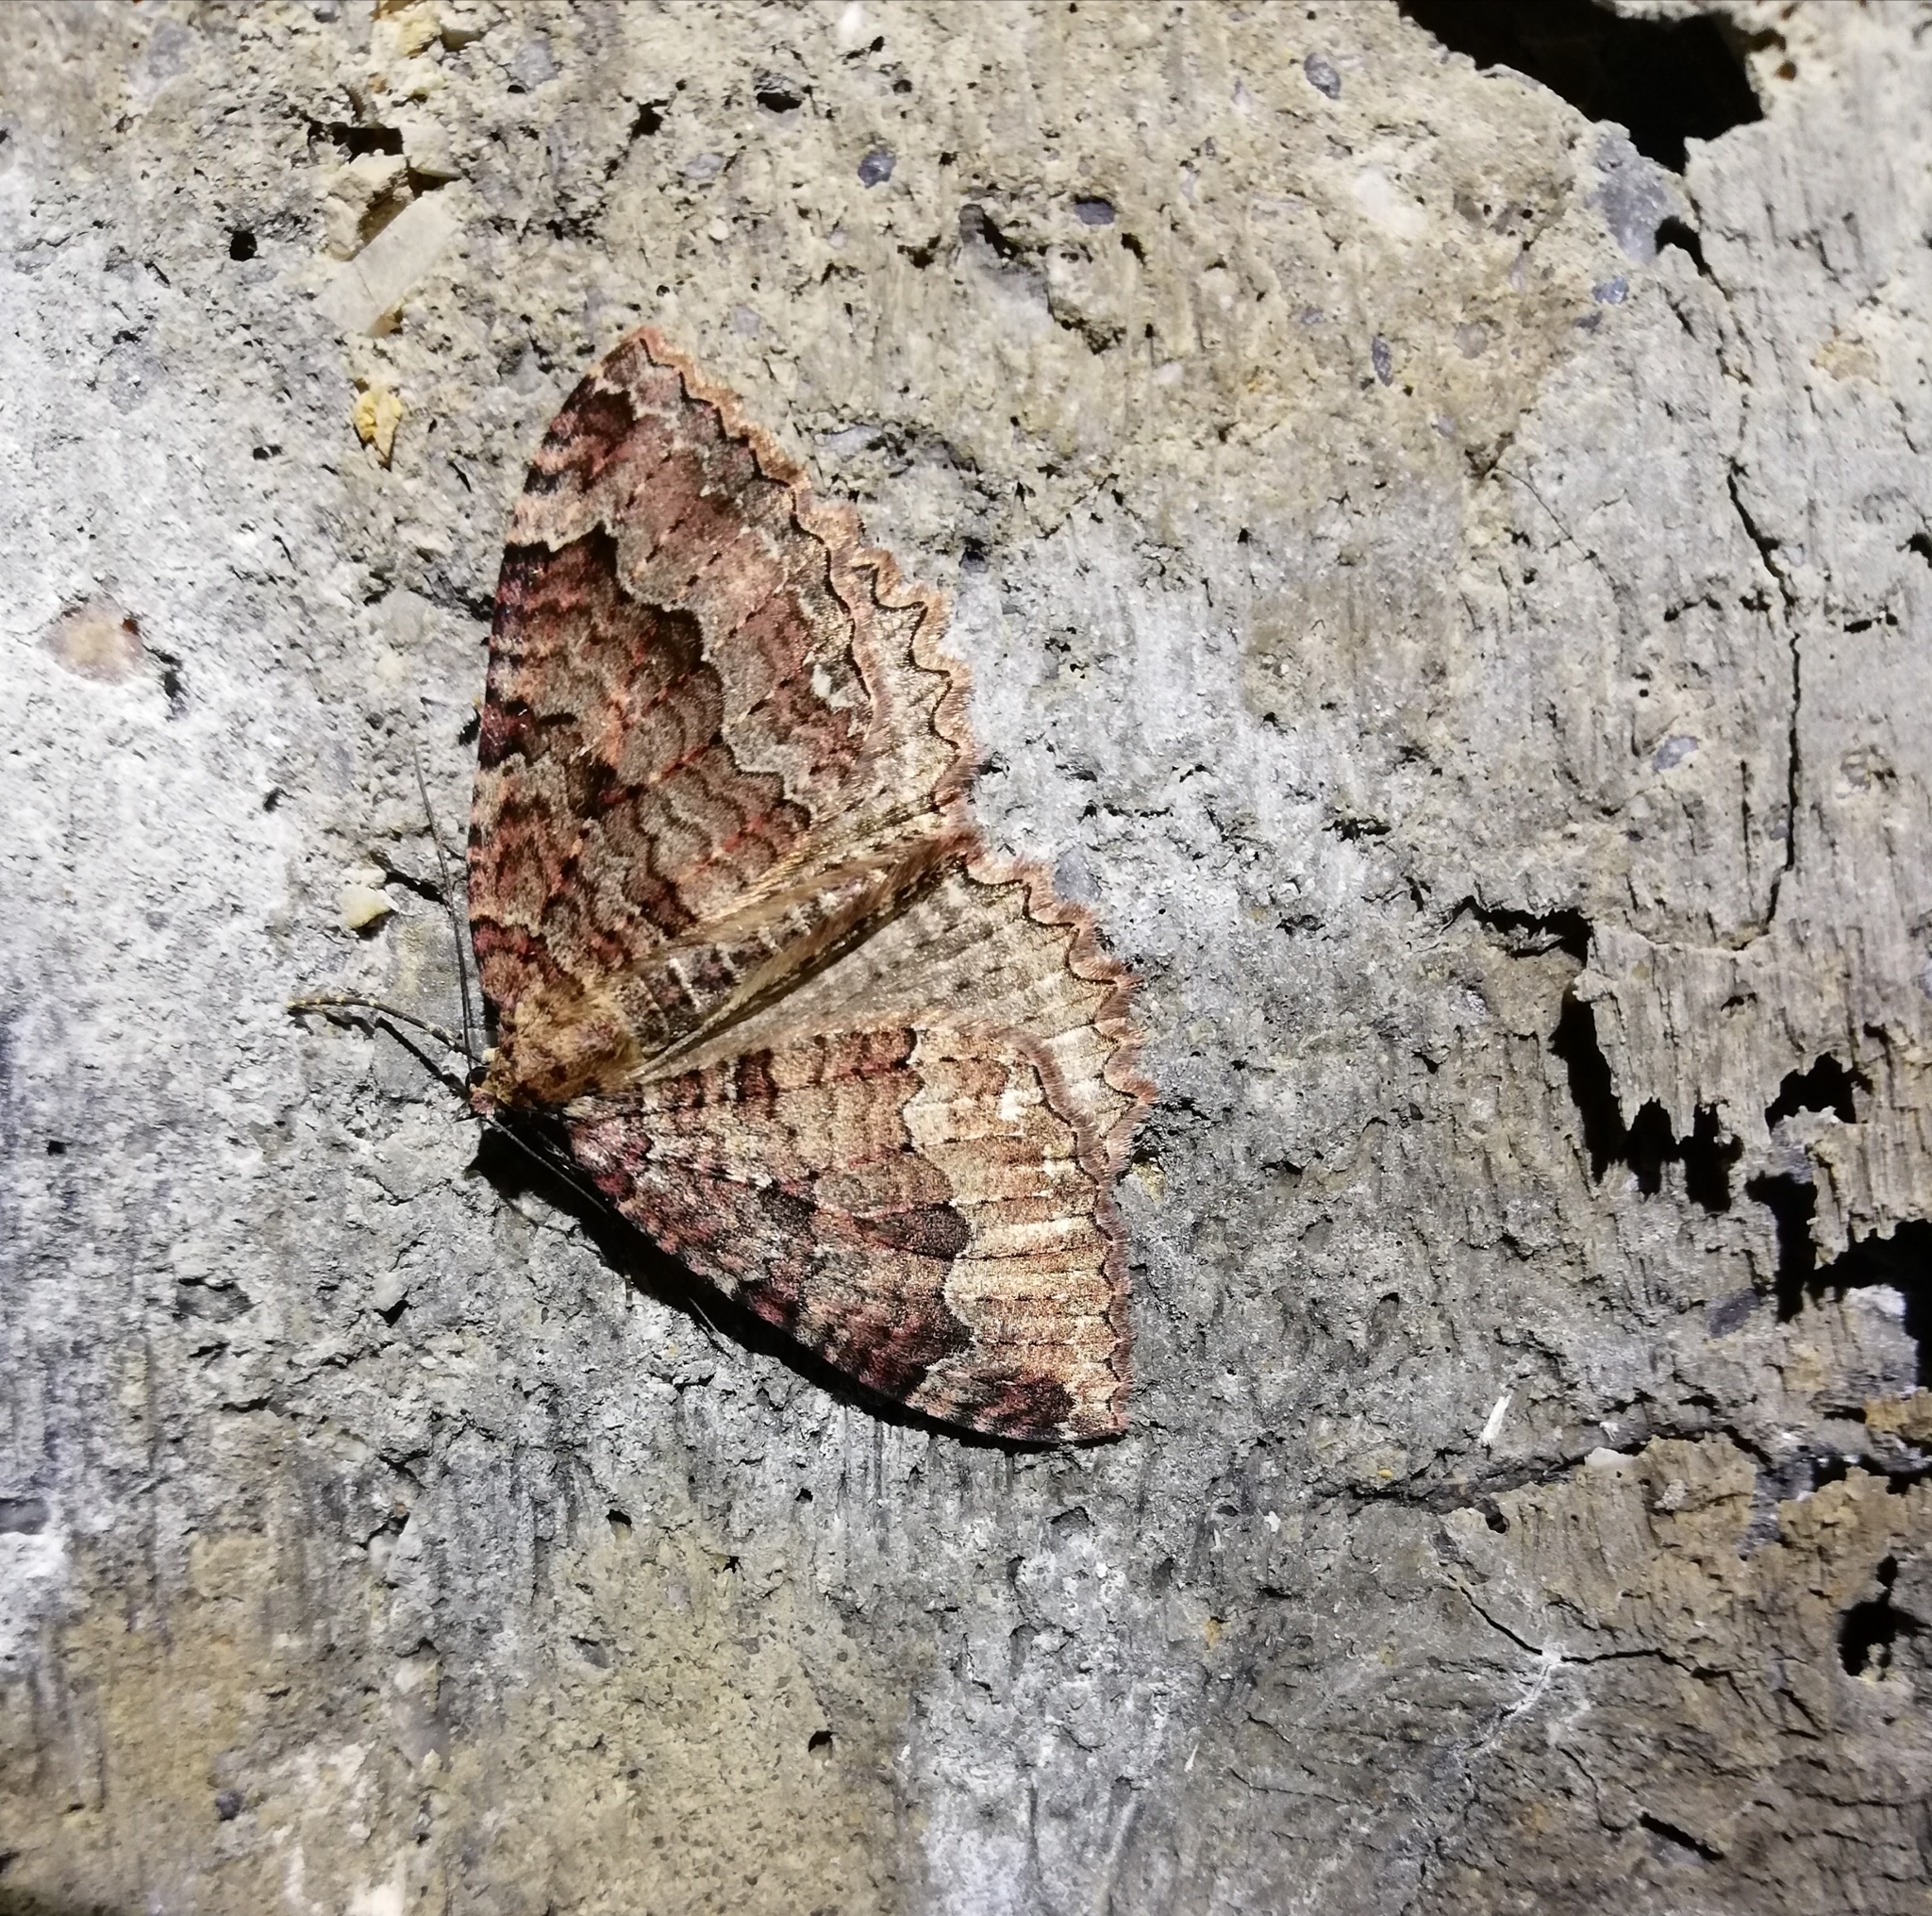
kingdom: Animalia
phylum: Arthropoda
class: Insecta
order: Lepidoptera
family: Geometridae
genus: Triphosa
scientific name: Triphosa dubitata
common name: Tissue
